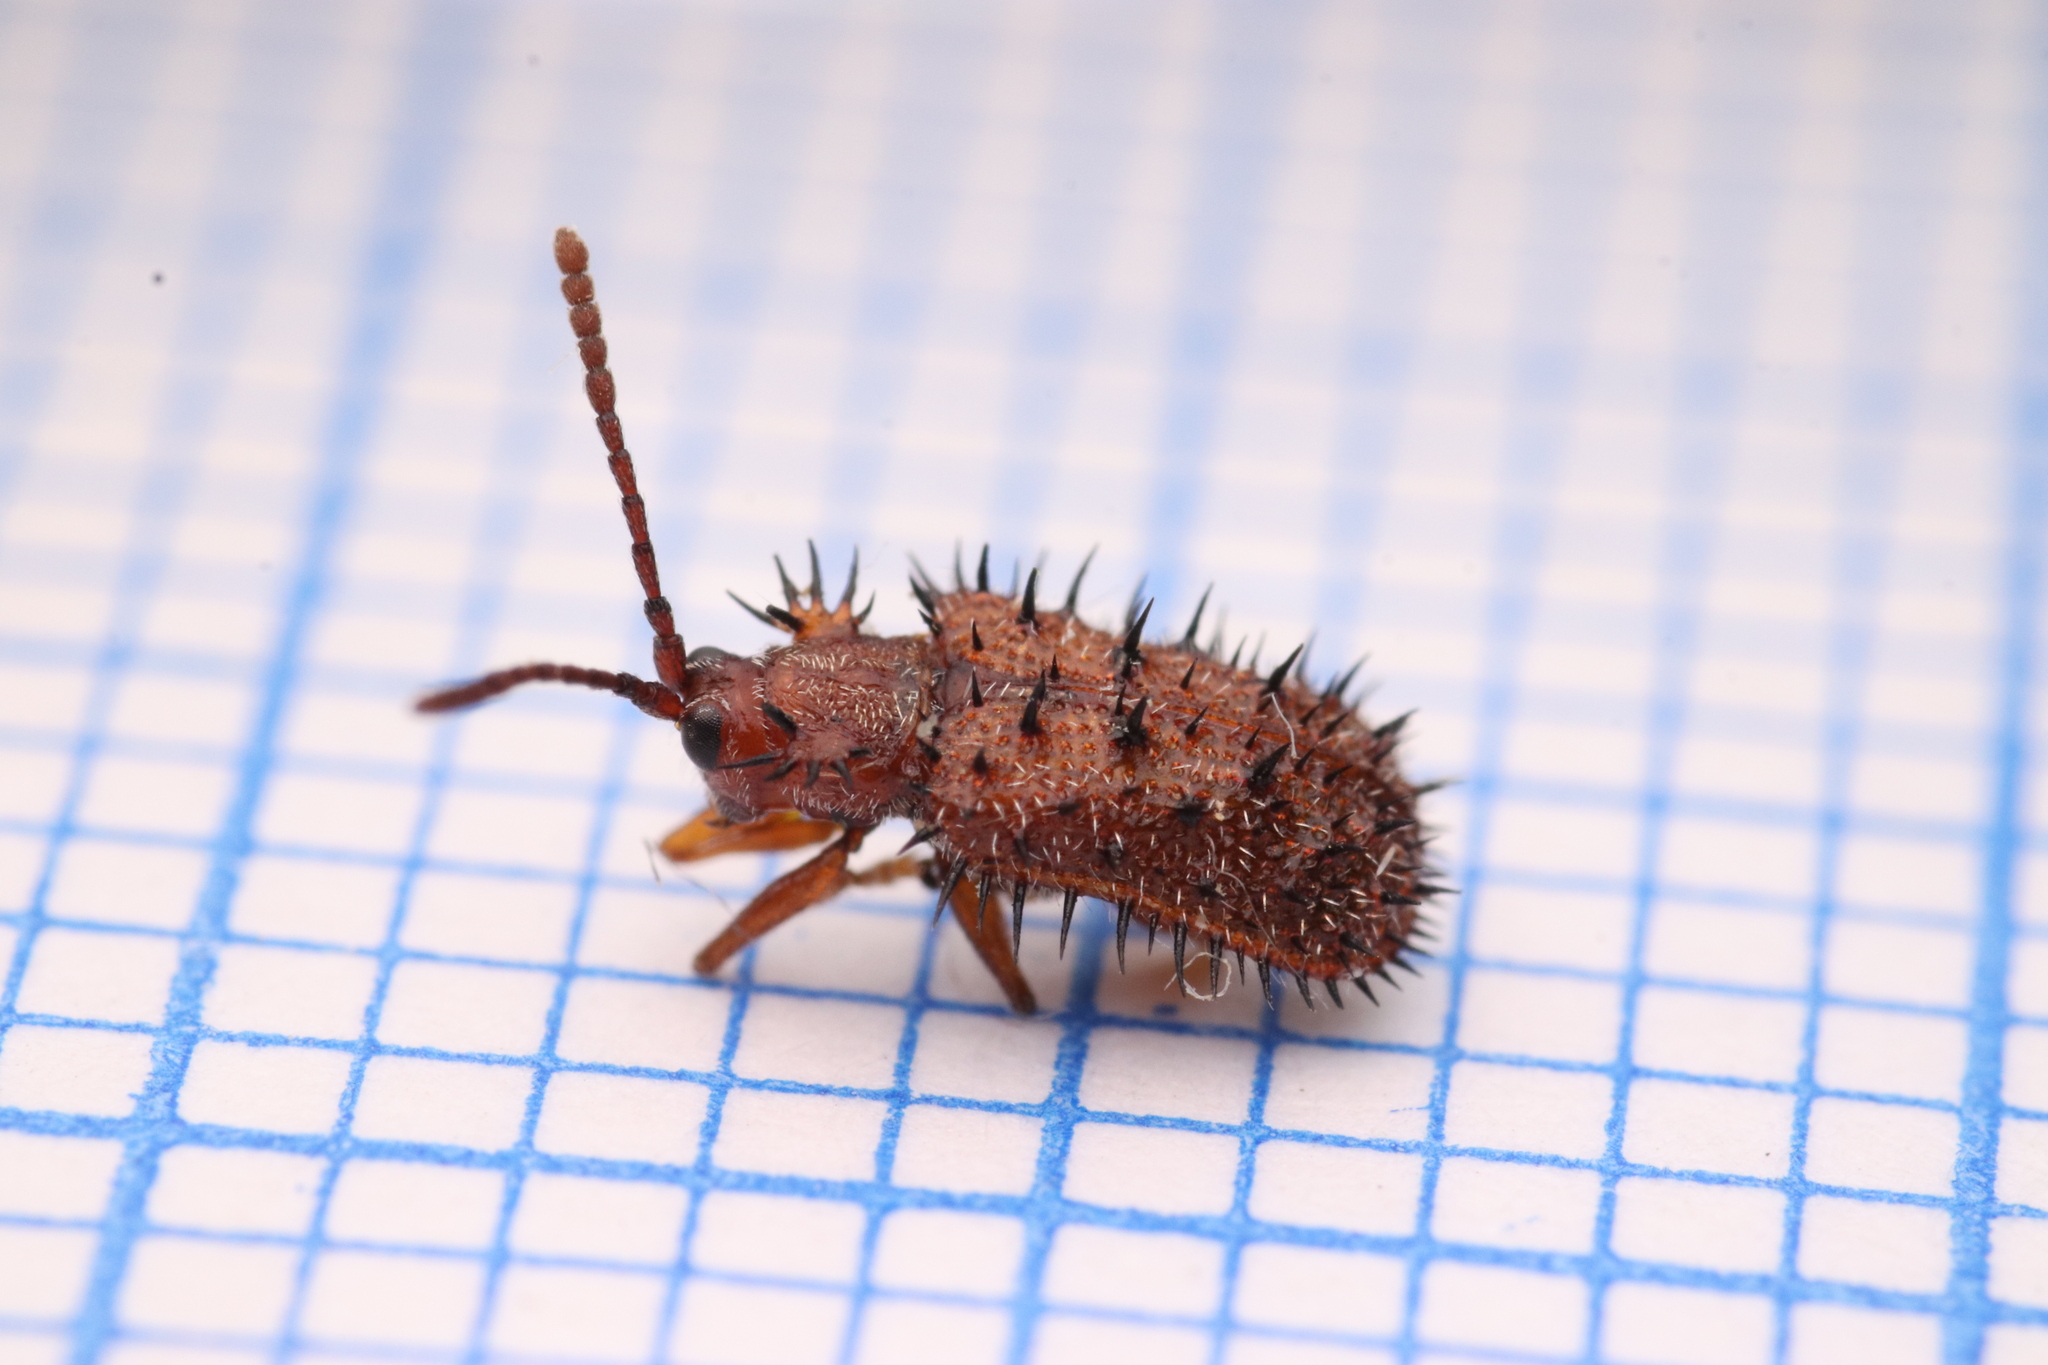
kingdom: Animalia
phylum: Arthropoda
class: Insecta
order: Coleoptera
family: Chrysomelidae
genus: Dicladispa
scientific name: Dicladispa testacea
